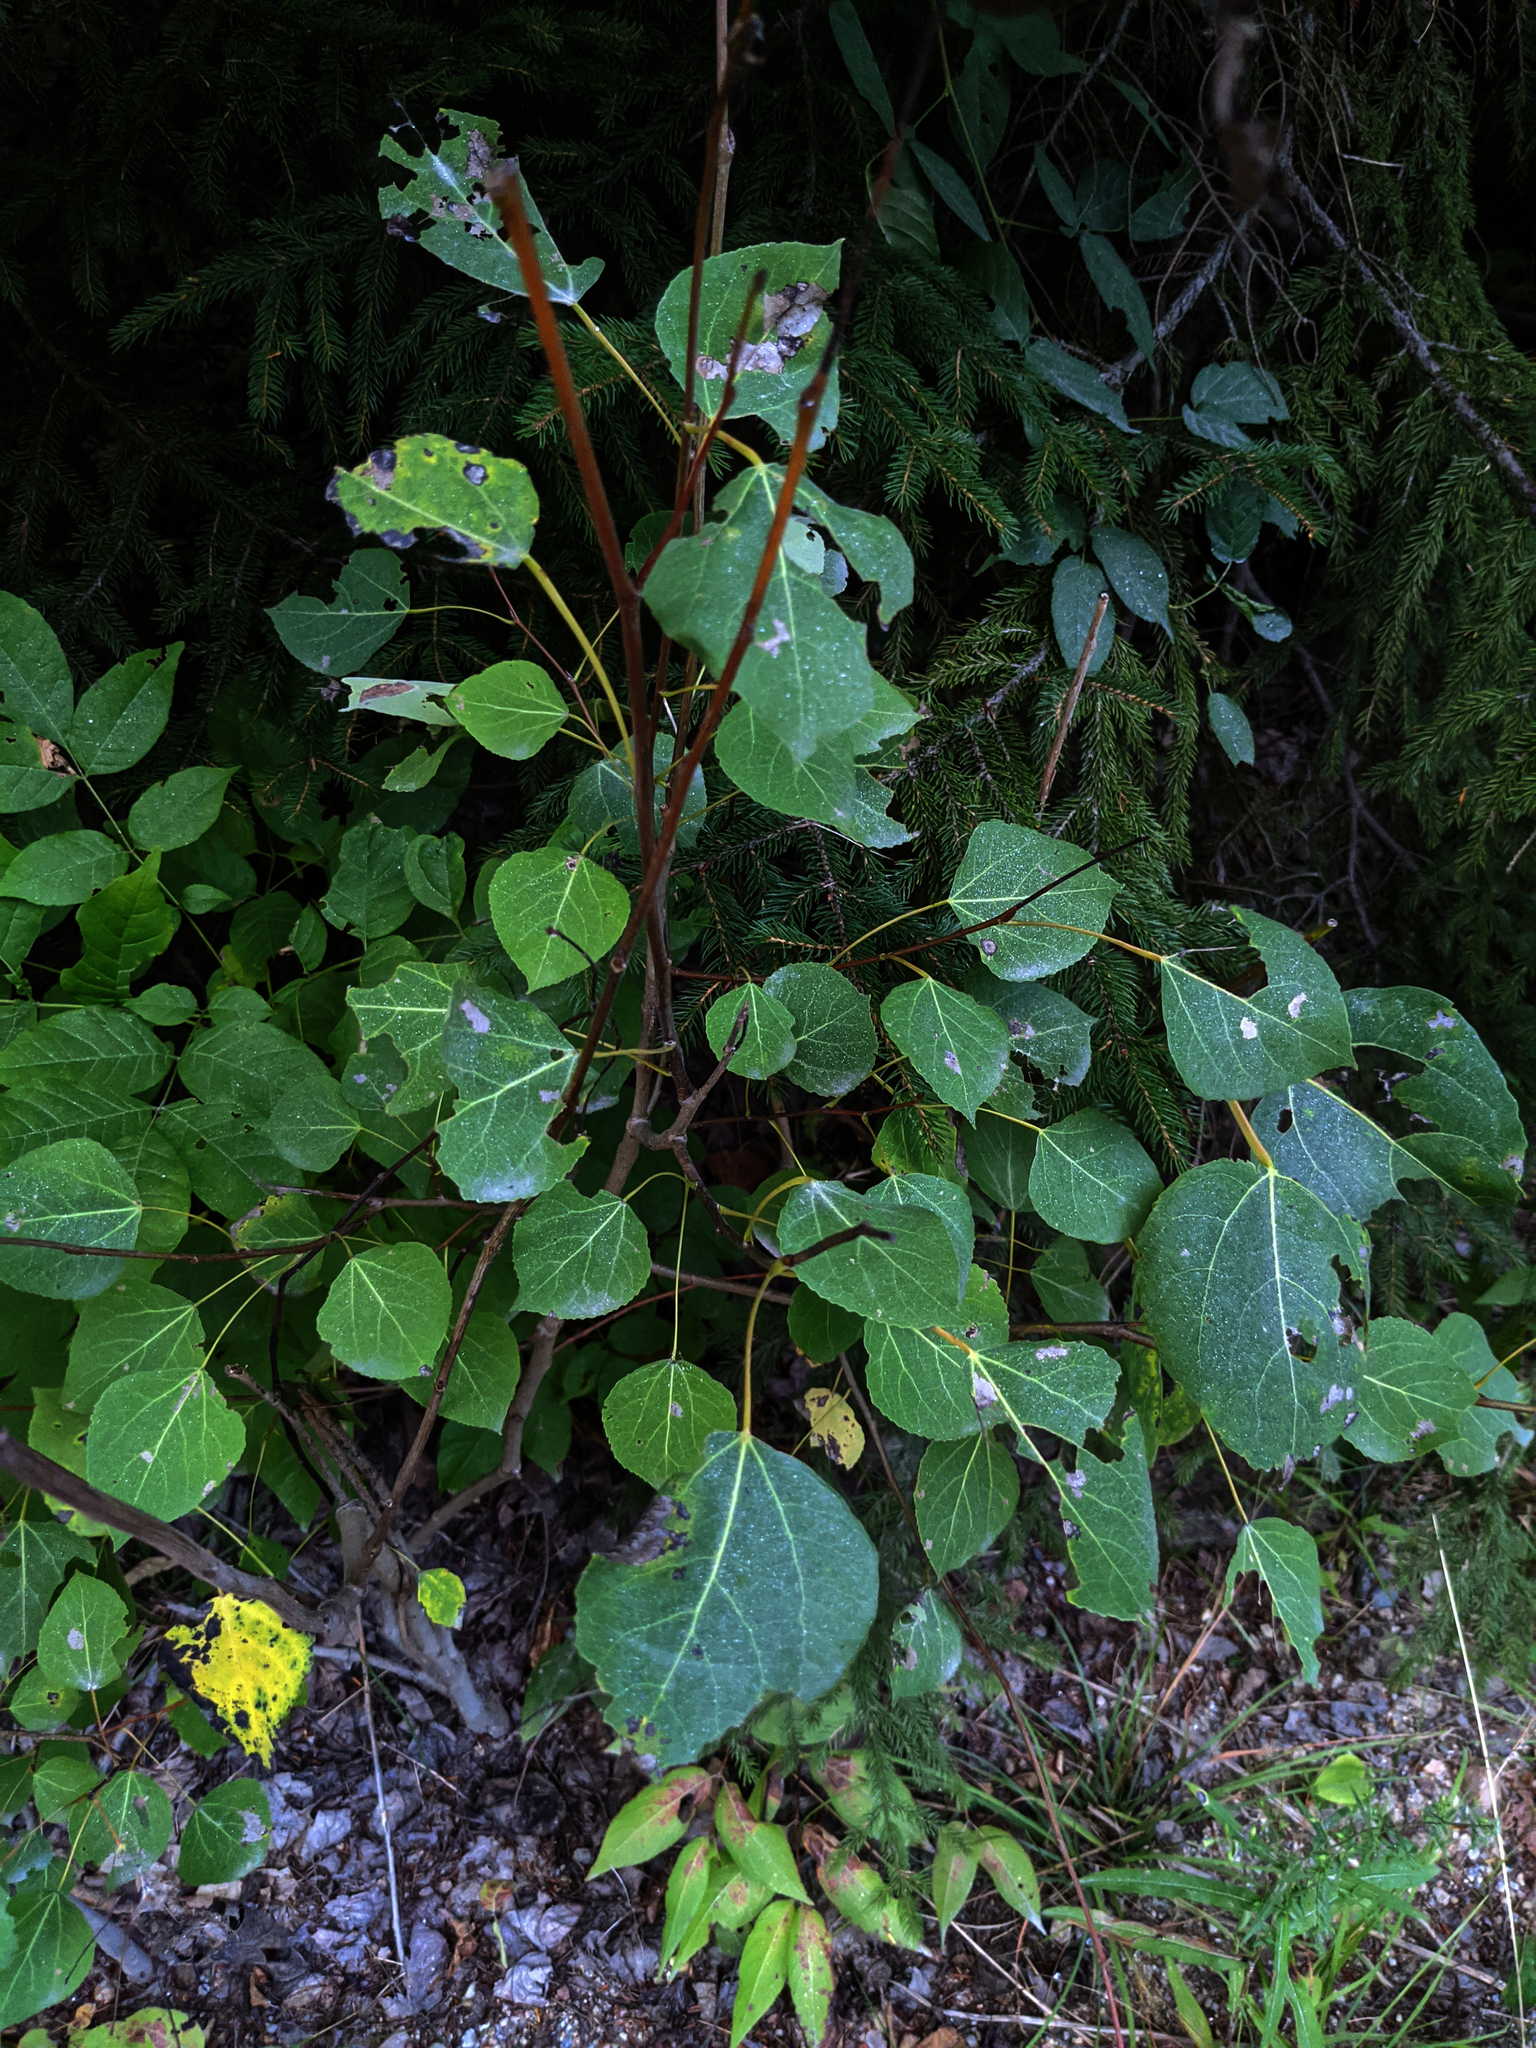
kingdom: Plantae
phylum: Tracheophyta
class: Magnoliopsida
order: Malpighiales
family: Salicaceae
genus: Populus
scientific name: Populus tremuloides
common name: Quaking aspen
